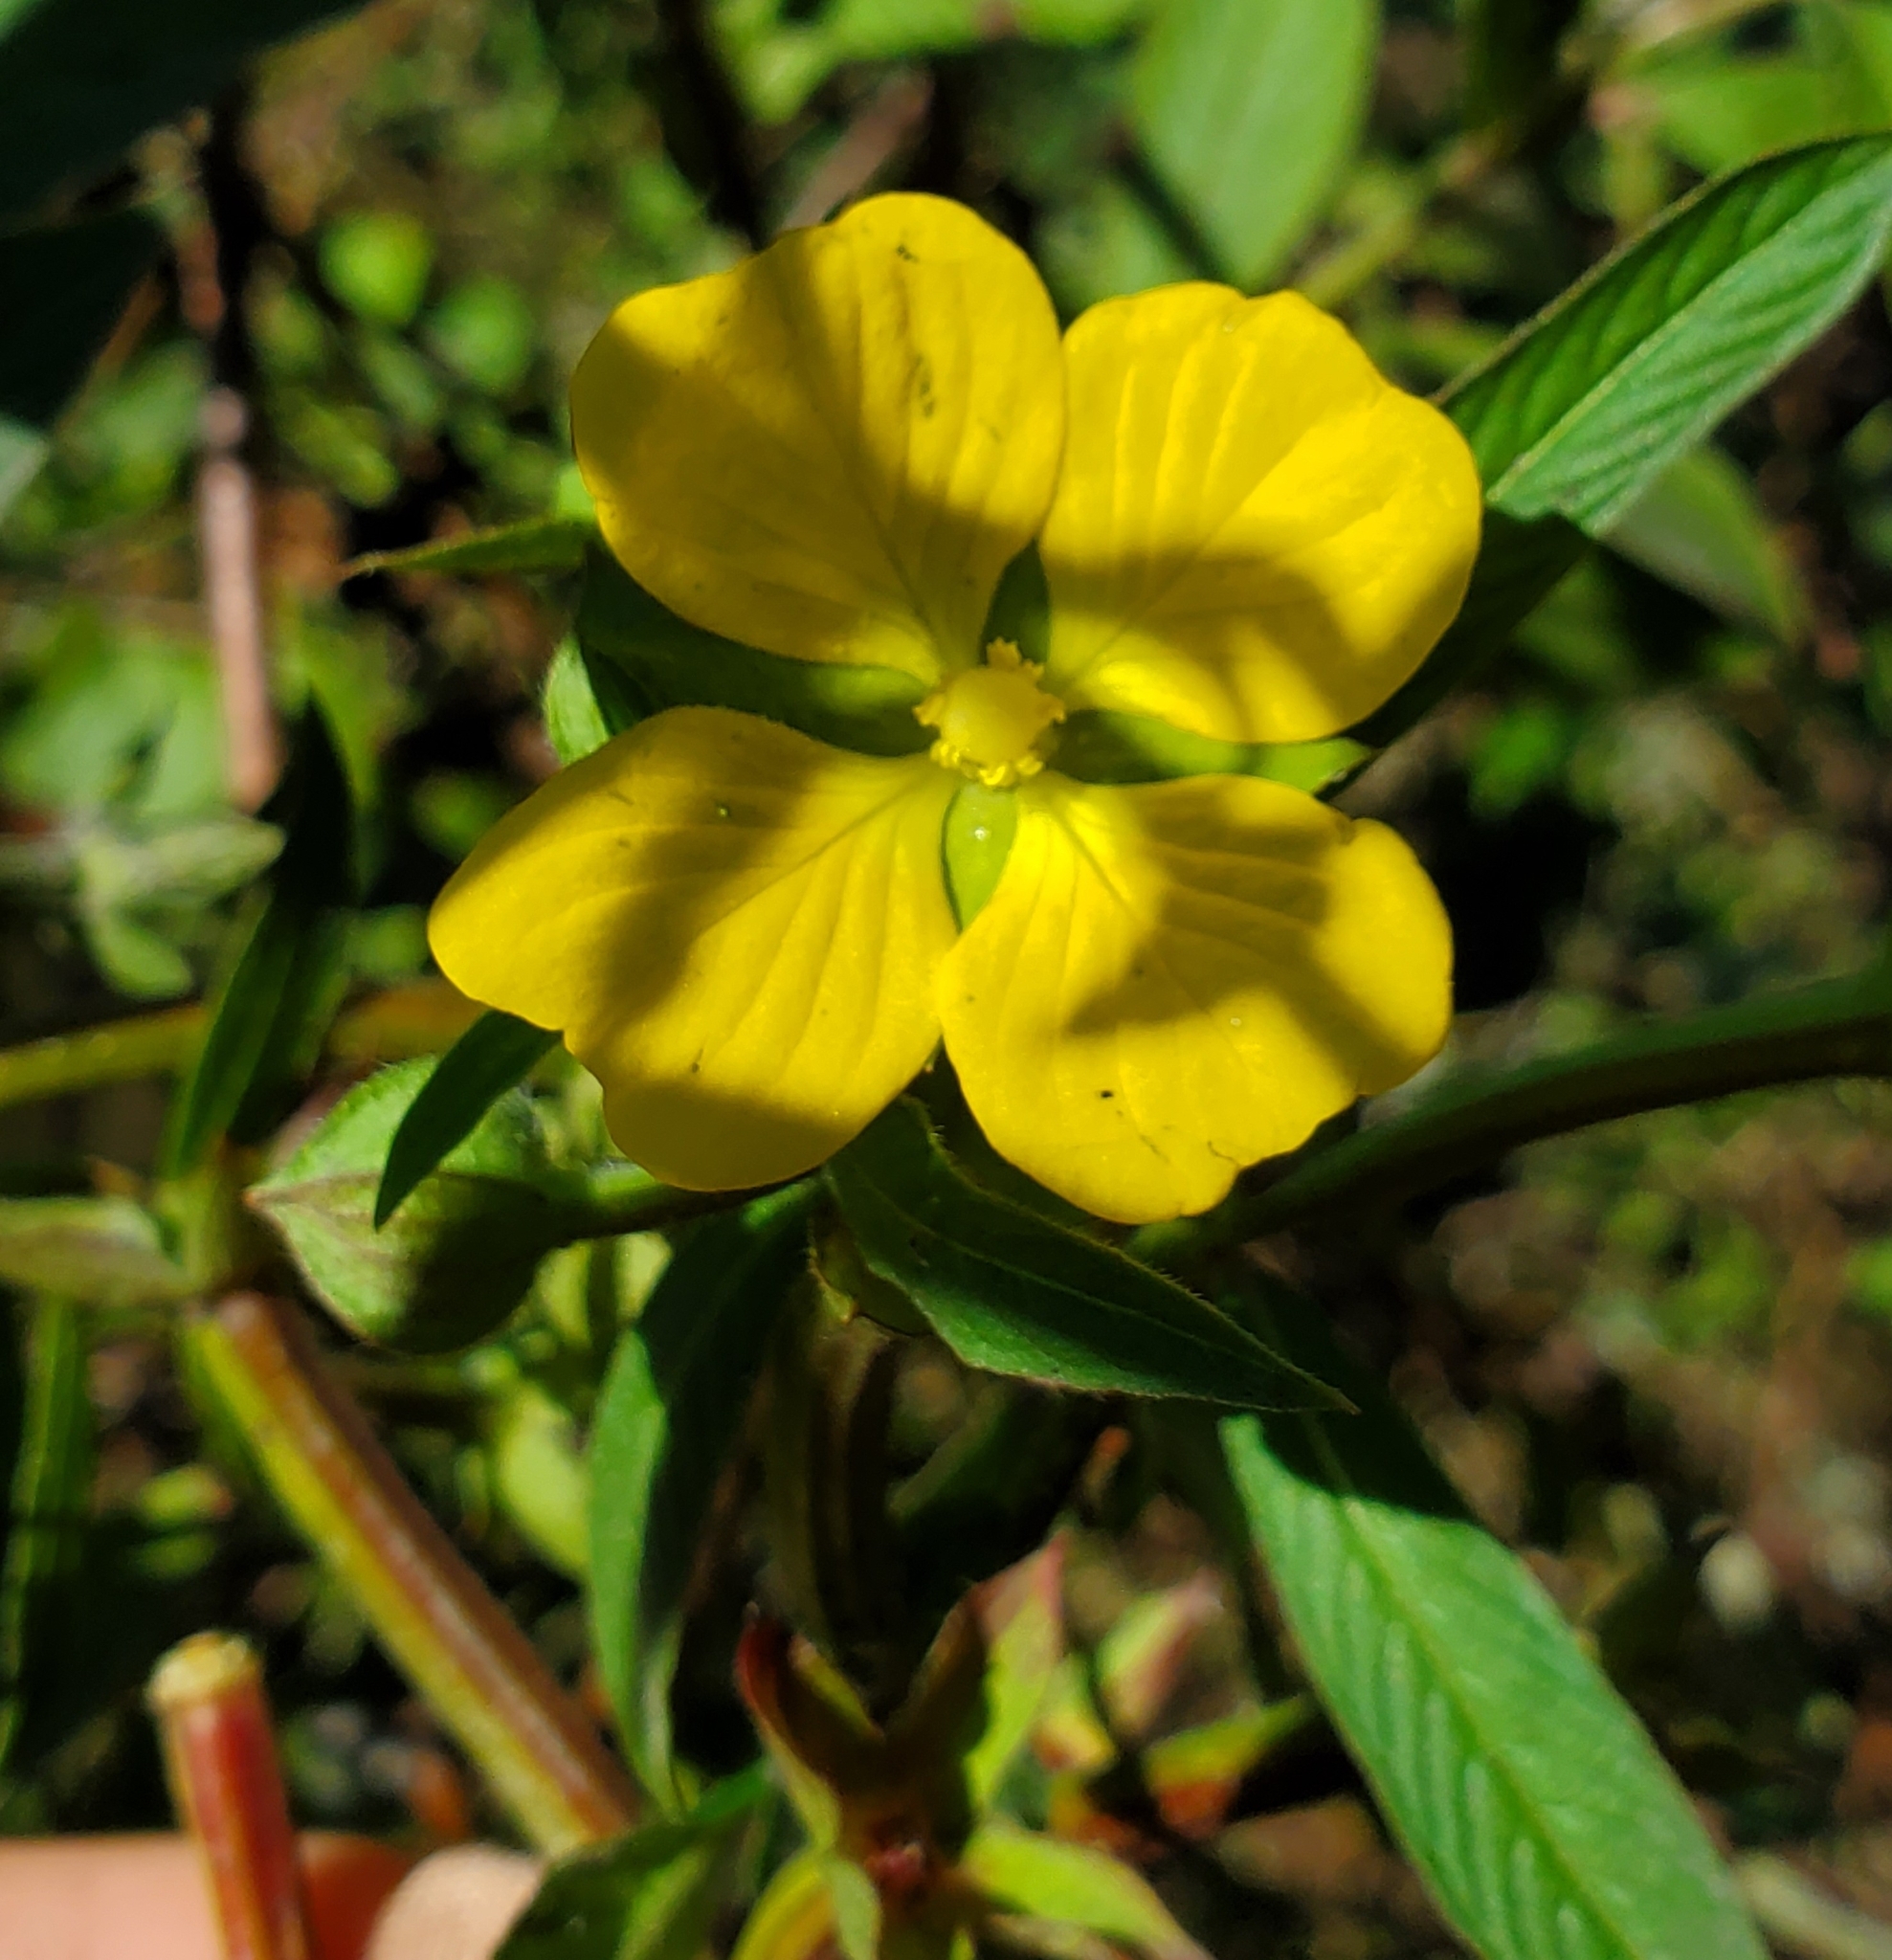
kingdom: Plantae
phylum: Tracheophyta
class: Magnoliopsida
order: Myrtales
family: Onagraceae
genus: Ludwigia
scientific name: Ludwigia octovalvis
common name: Water-primrose
